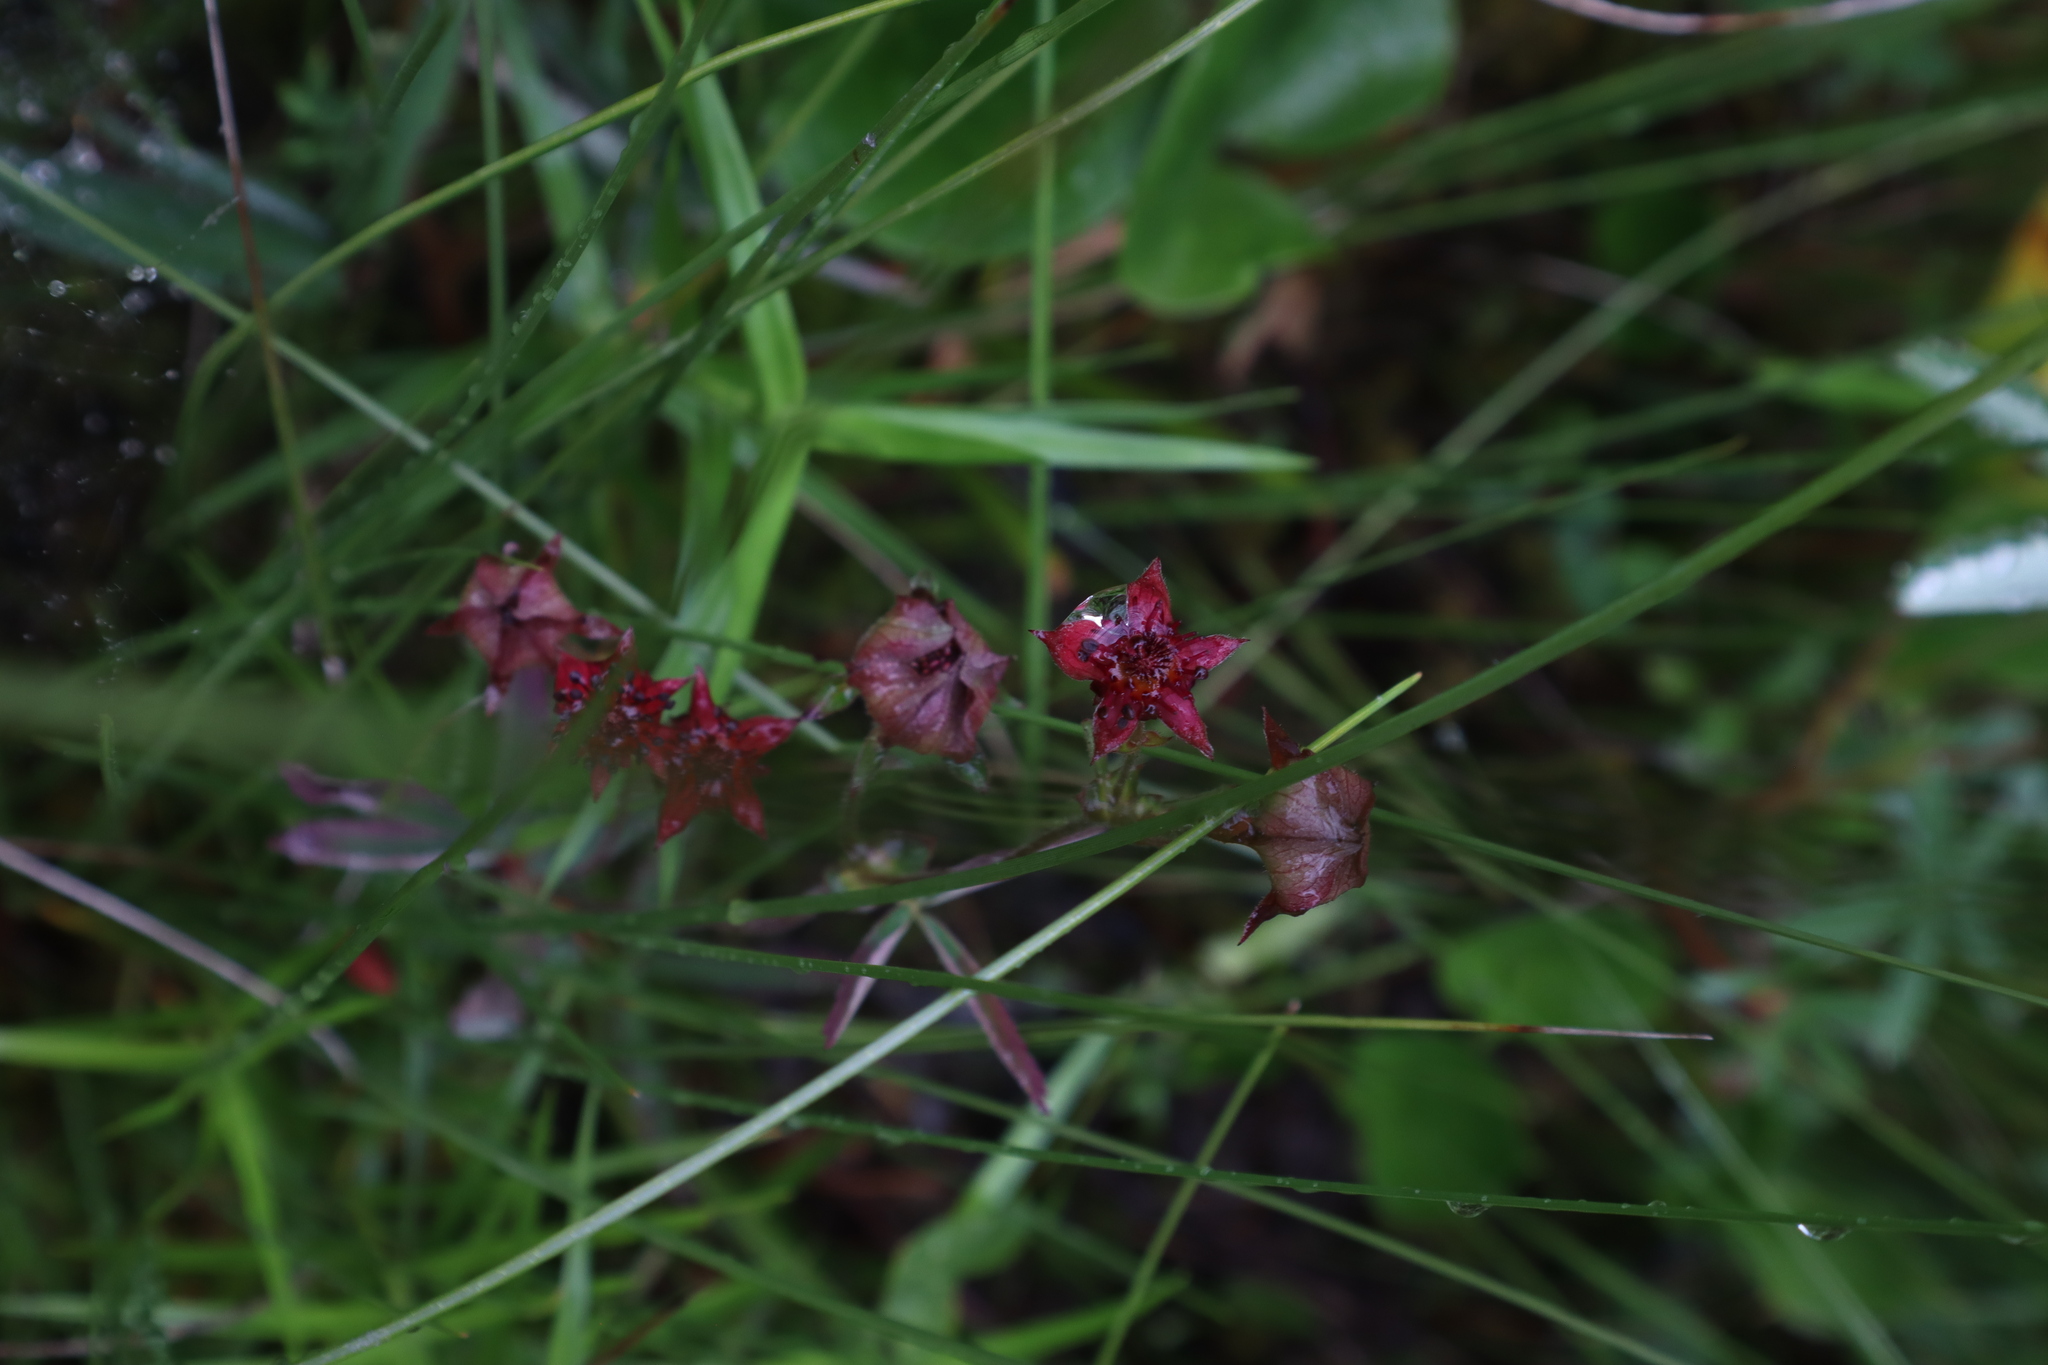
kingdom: Plantae
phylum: Tracheophyta
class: Magnoliopsida
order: Rosales
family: Rosaceae
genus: Comarum
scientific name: Comarum palustre
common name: Marsh cinquefoil
